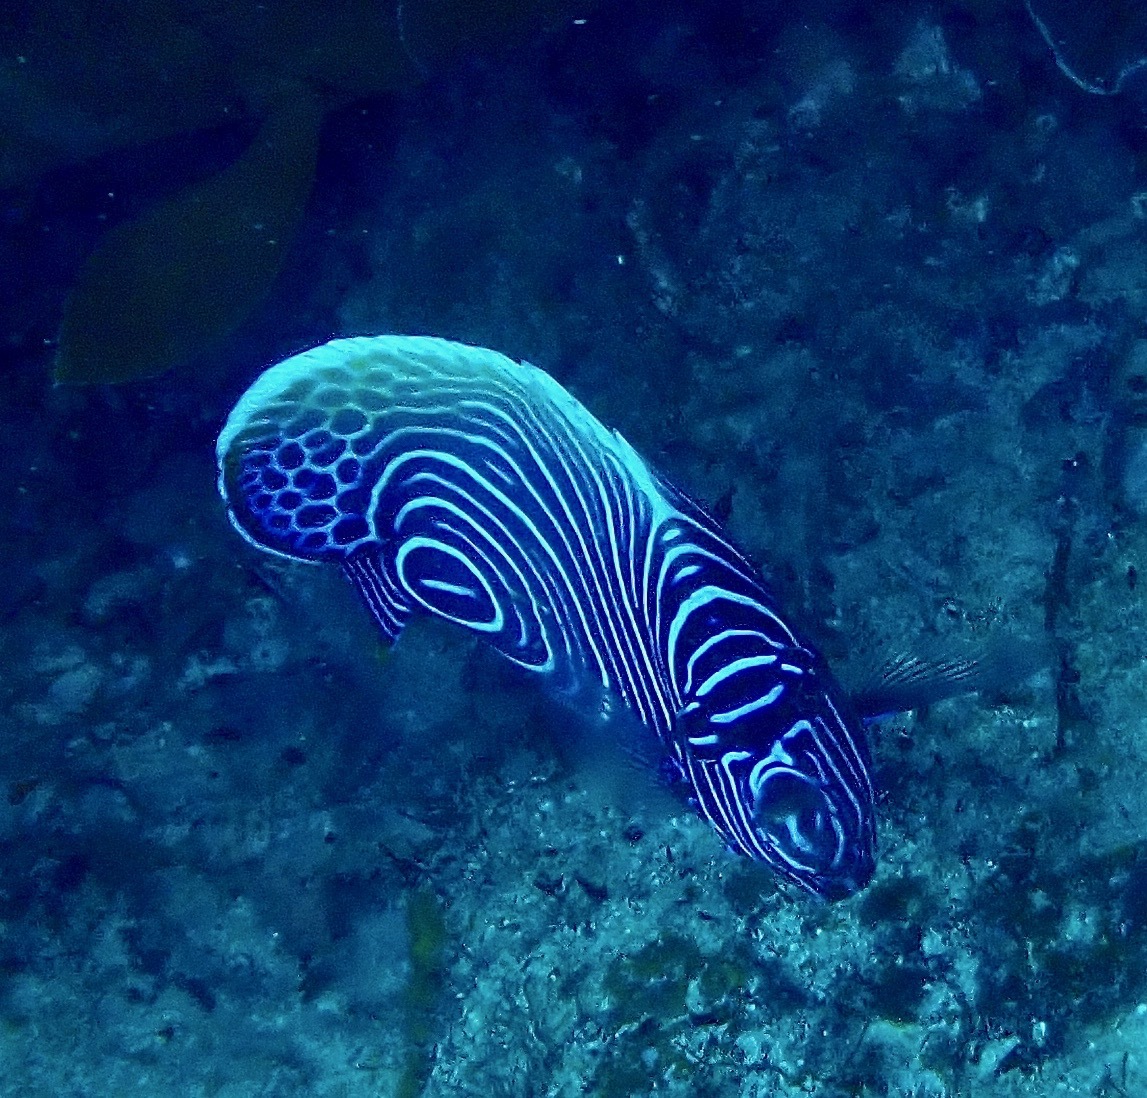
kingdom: Animalia
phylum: Chordata
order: Perciformes
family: Pomacanthidae
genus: Pomacanthus
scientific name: Pomacanthus imperator
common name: Emperor angelfish
